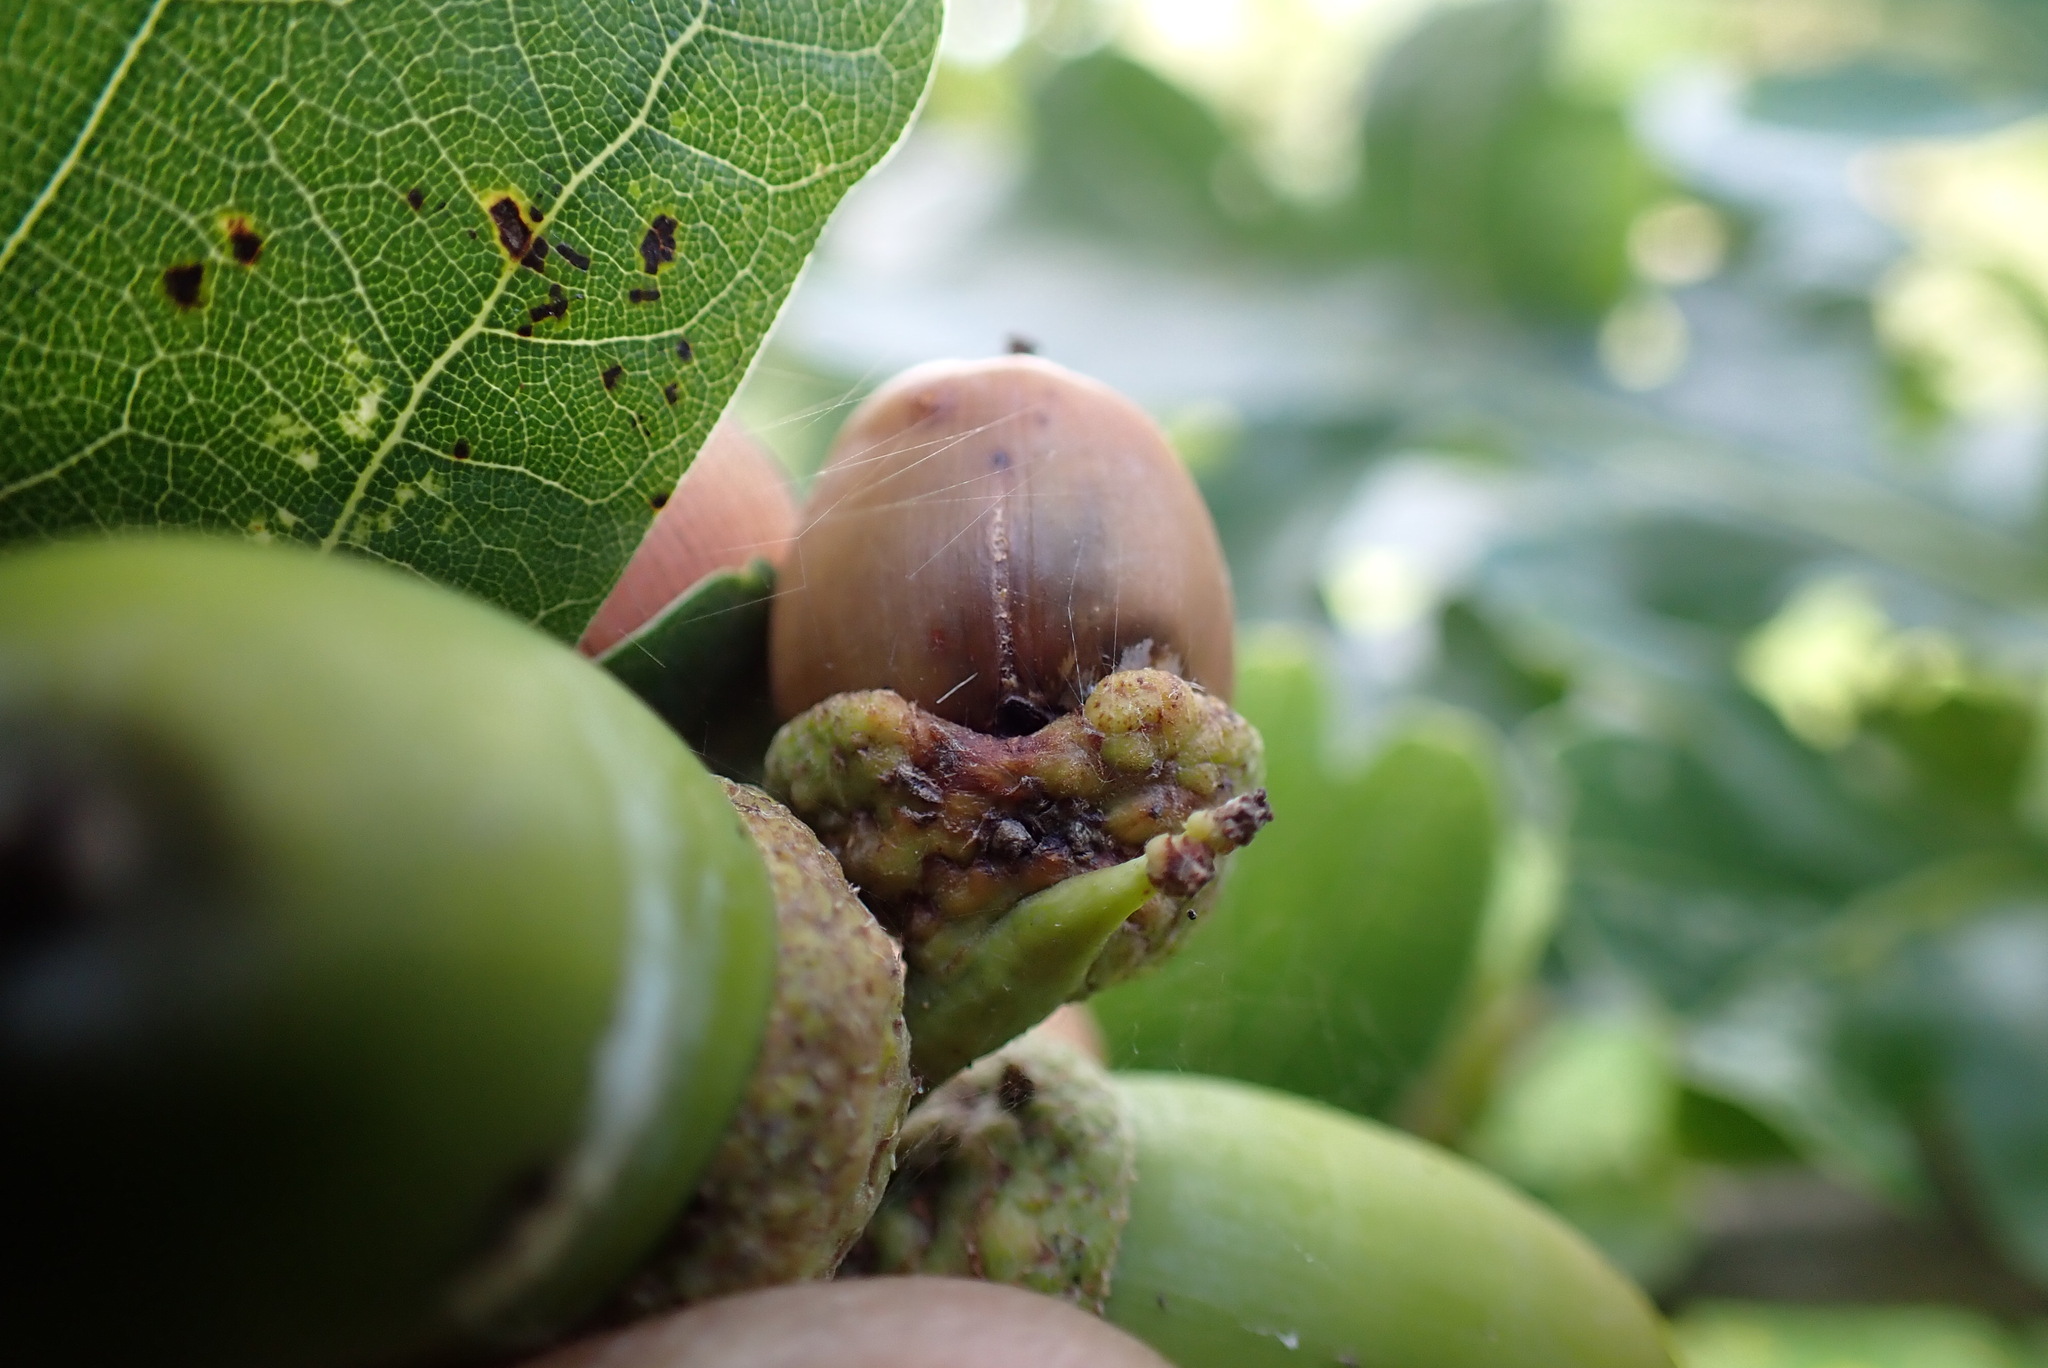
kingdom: Plantae
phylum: Tracheophyta
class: Magnoliopsida
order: Fagales
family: Fagaceae
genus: Quercus
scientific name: Quercus robur
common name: Pedunculate oak
